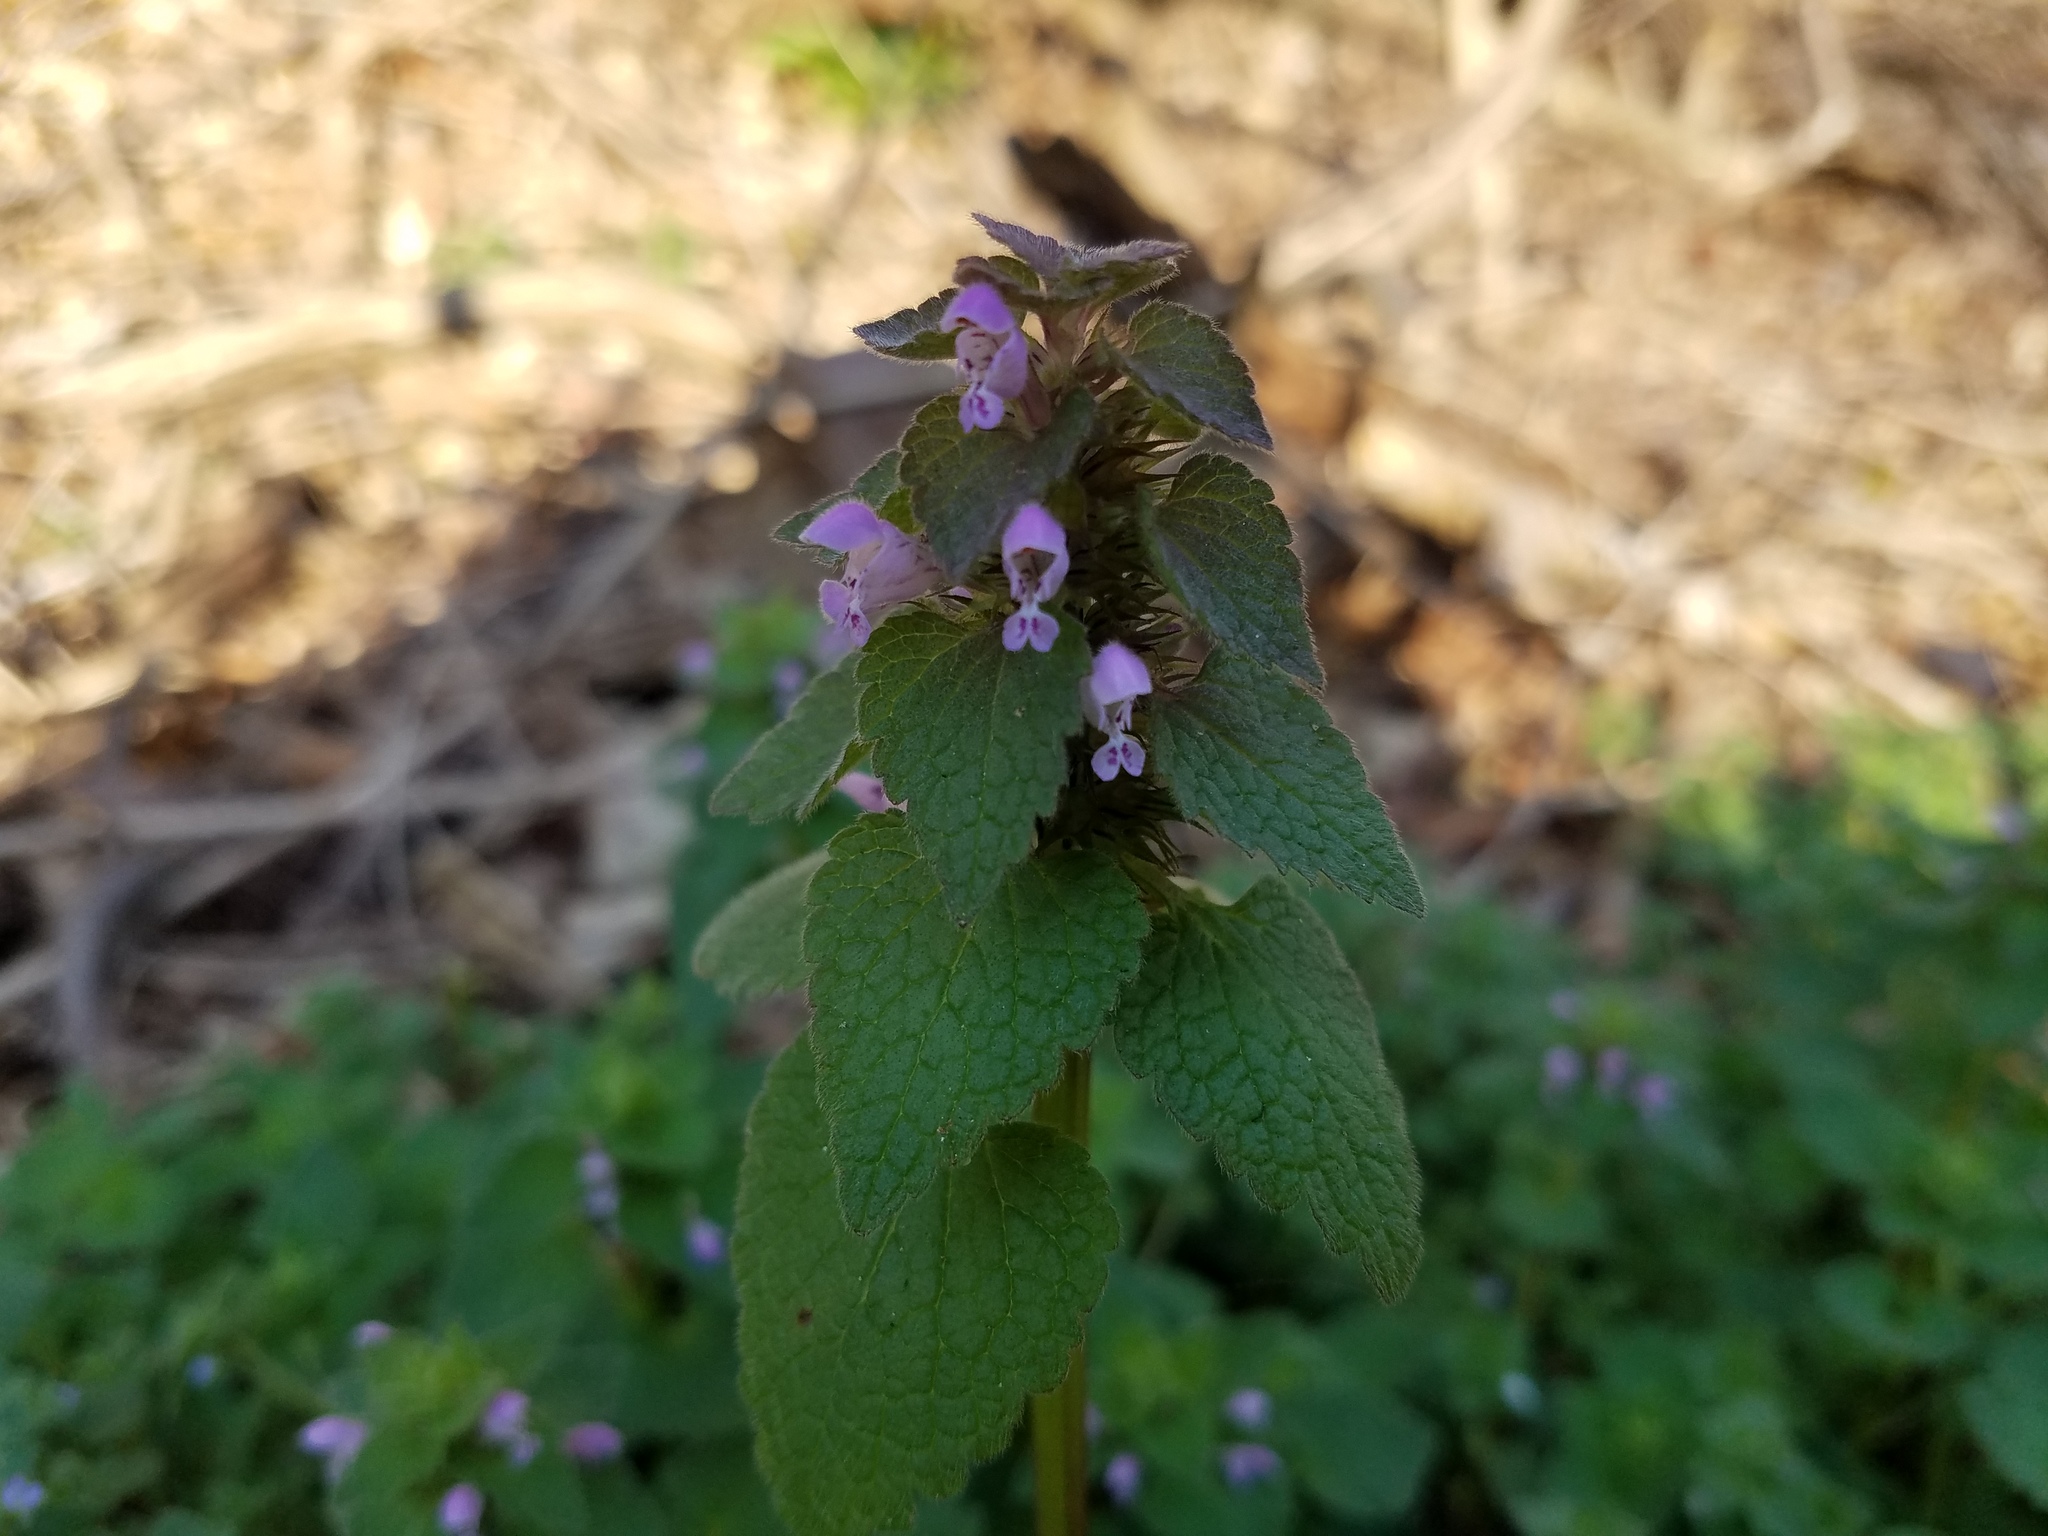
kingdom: Plantae
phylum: Tracheophyta
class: Magnoliopsida
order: Lamiales
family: Lamiaceae
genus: Lamium
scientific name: Lamium purpureum
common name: Red dead-nettle
